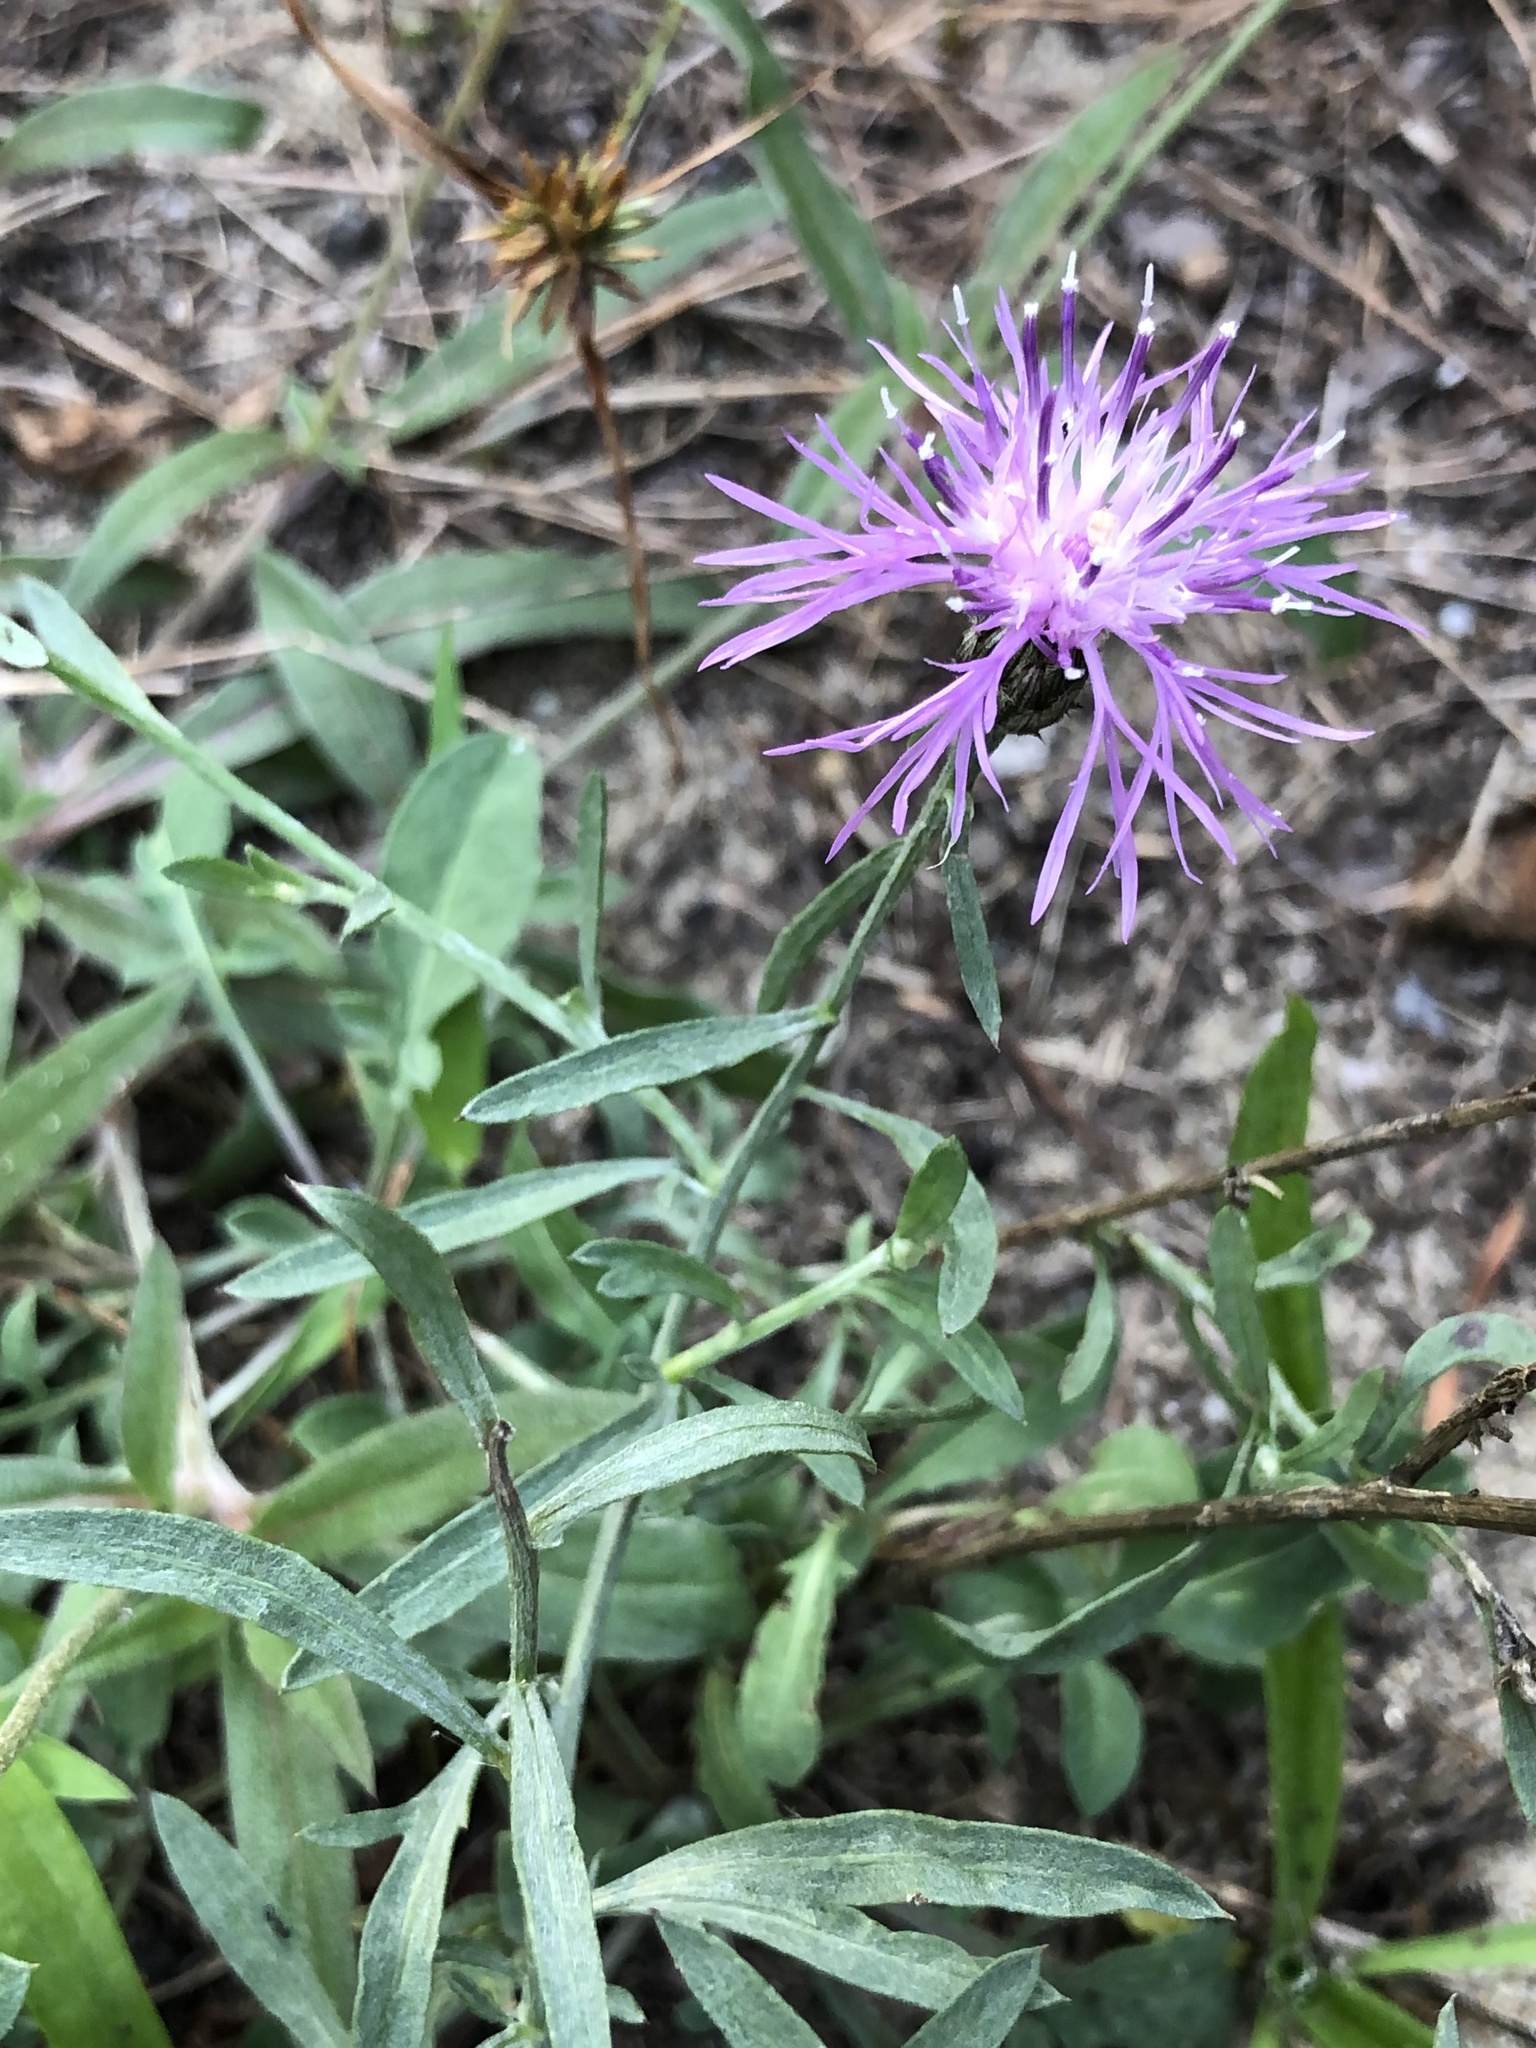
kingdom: Plantae
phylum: Tracheophyta
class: Magnoliopsida
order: Asterales
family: Asteraceae
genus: Centaurea
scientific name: Centaurea stoebe
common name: Spotted knapweed
